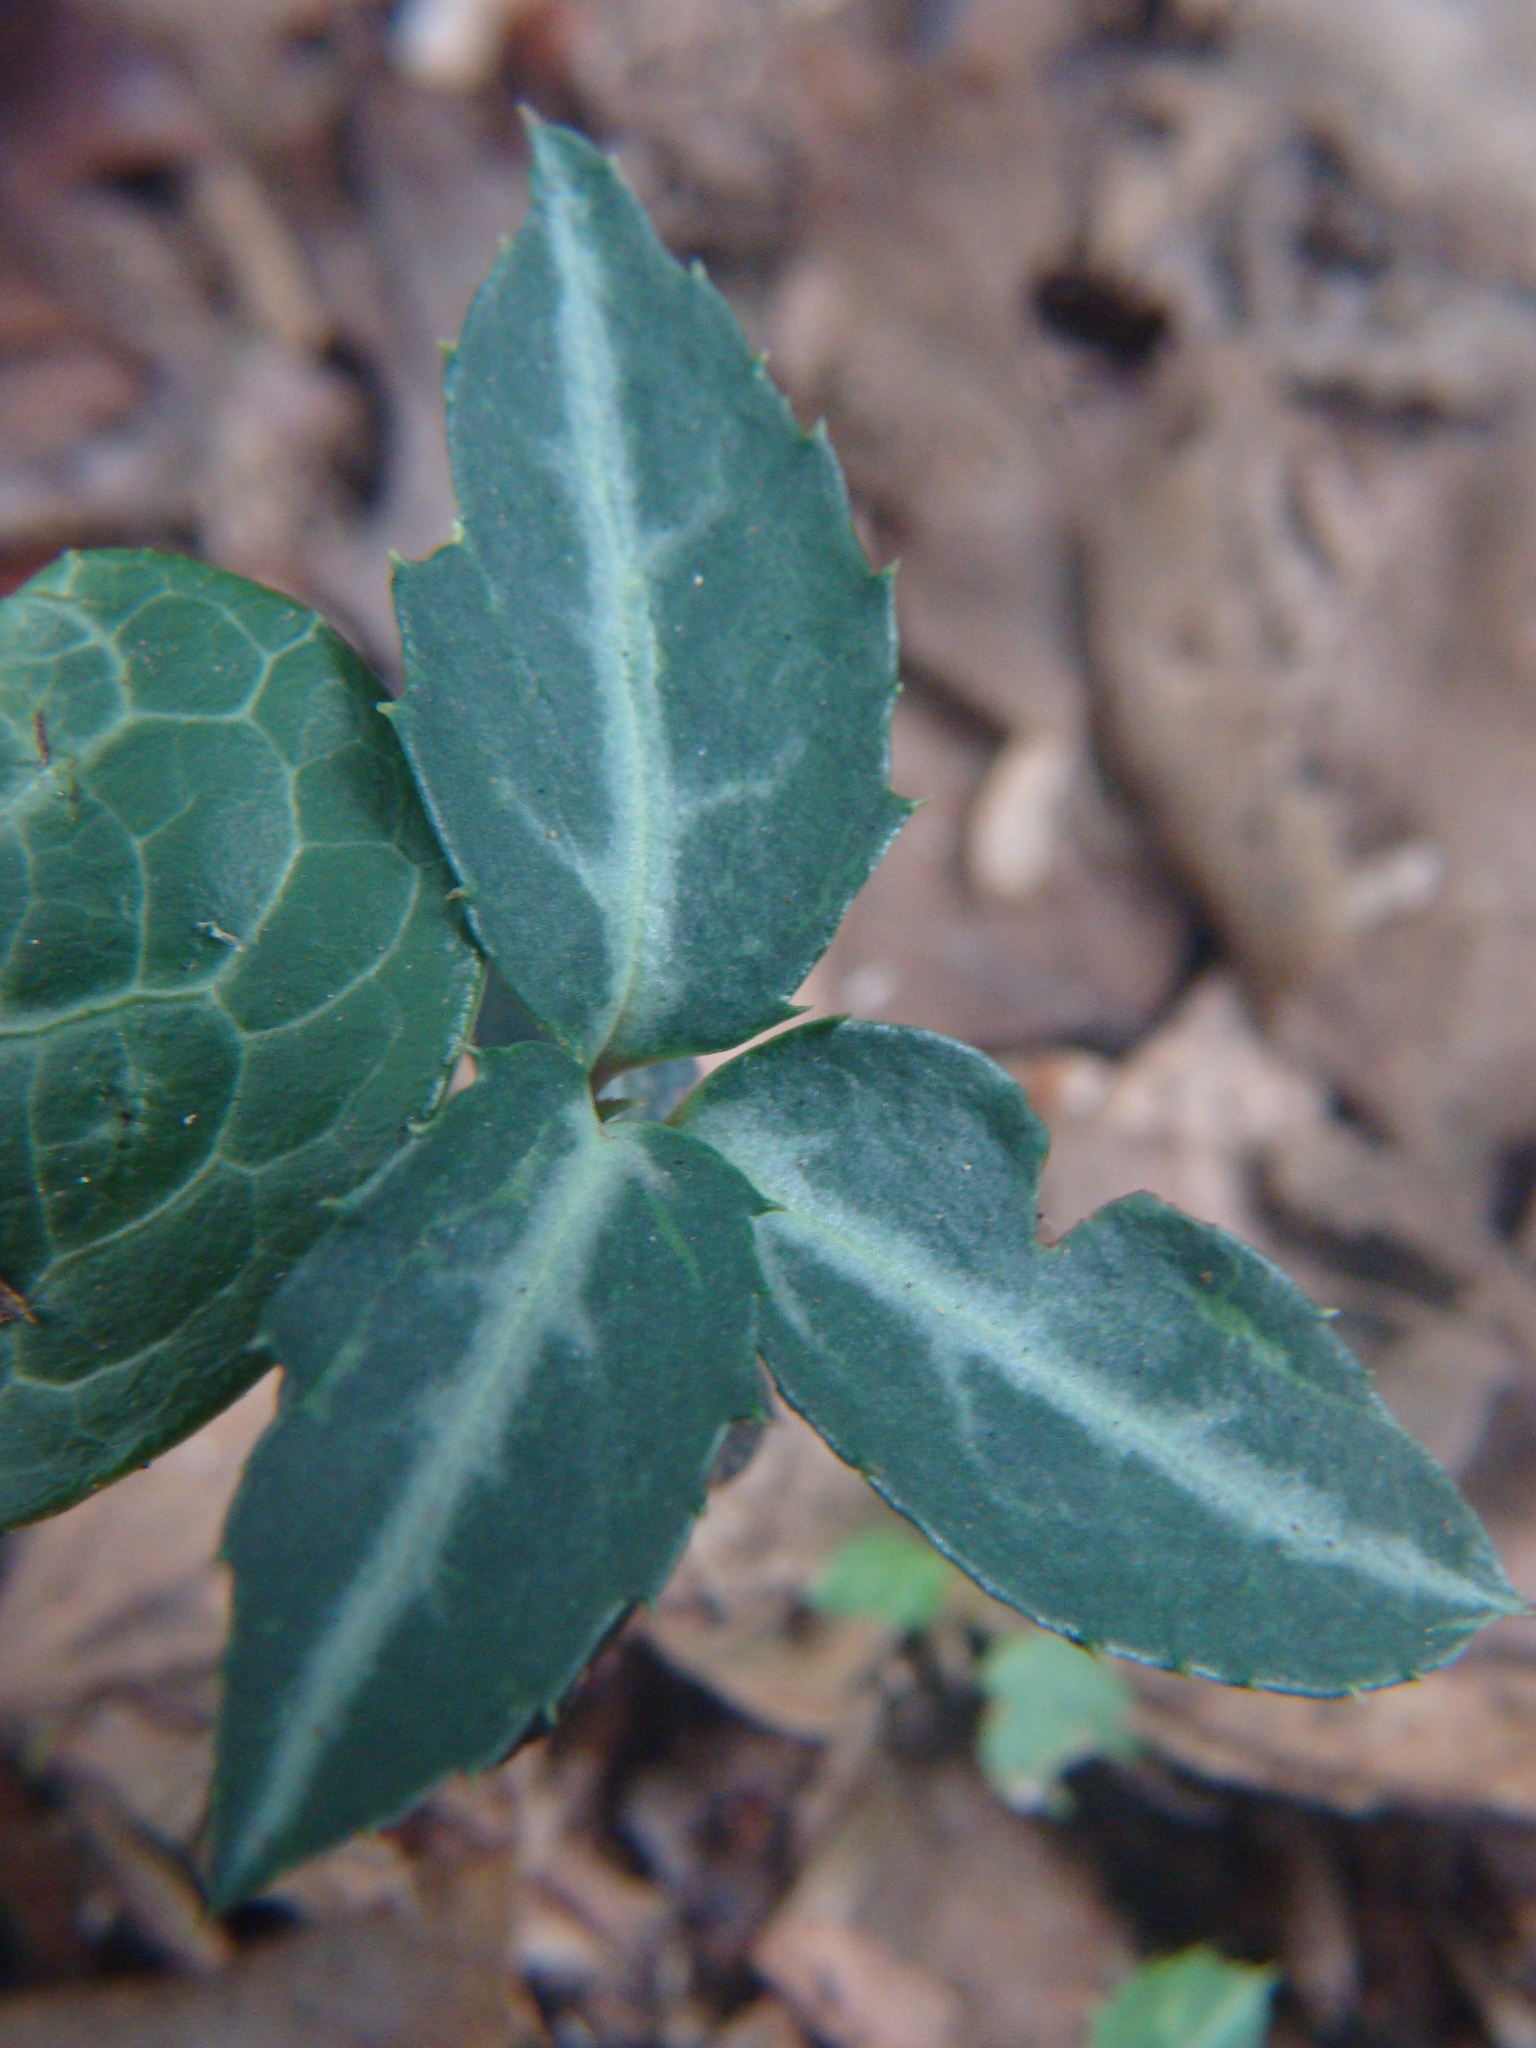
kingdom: Plantae
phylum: Tracheophyta
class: Magnoliopsida
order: Ericales
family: Ericaceae
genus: Chimaphila
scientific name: Chimaphila maculata
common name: Spotted pipsissewa
